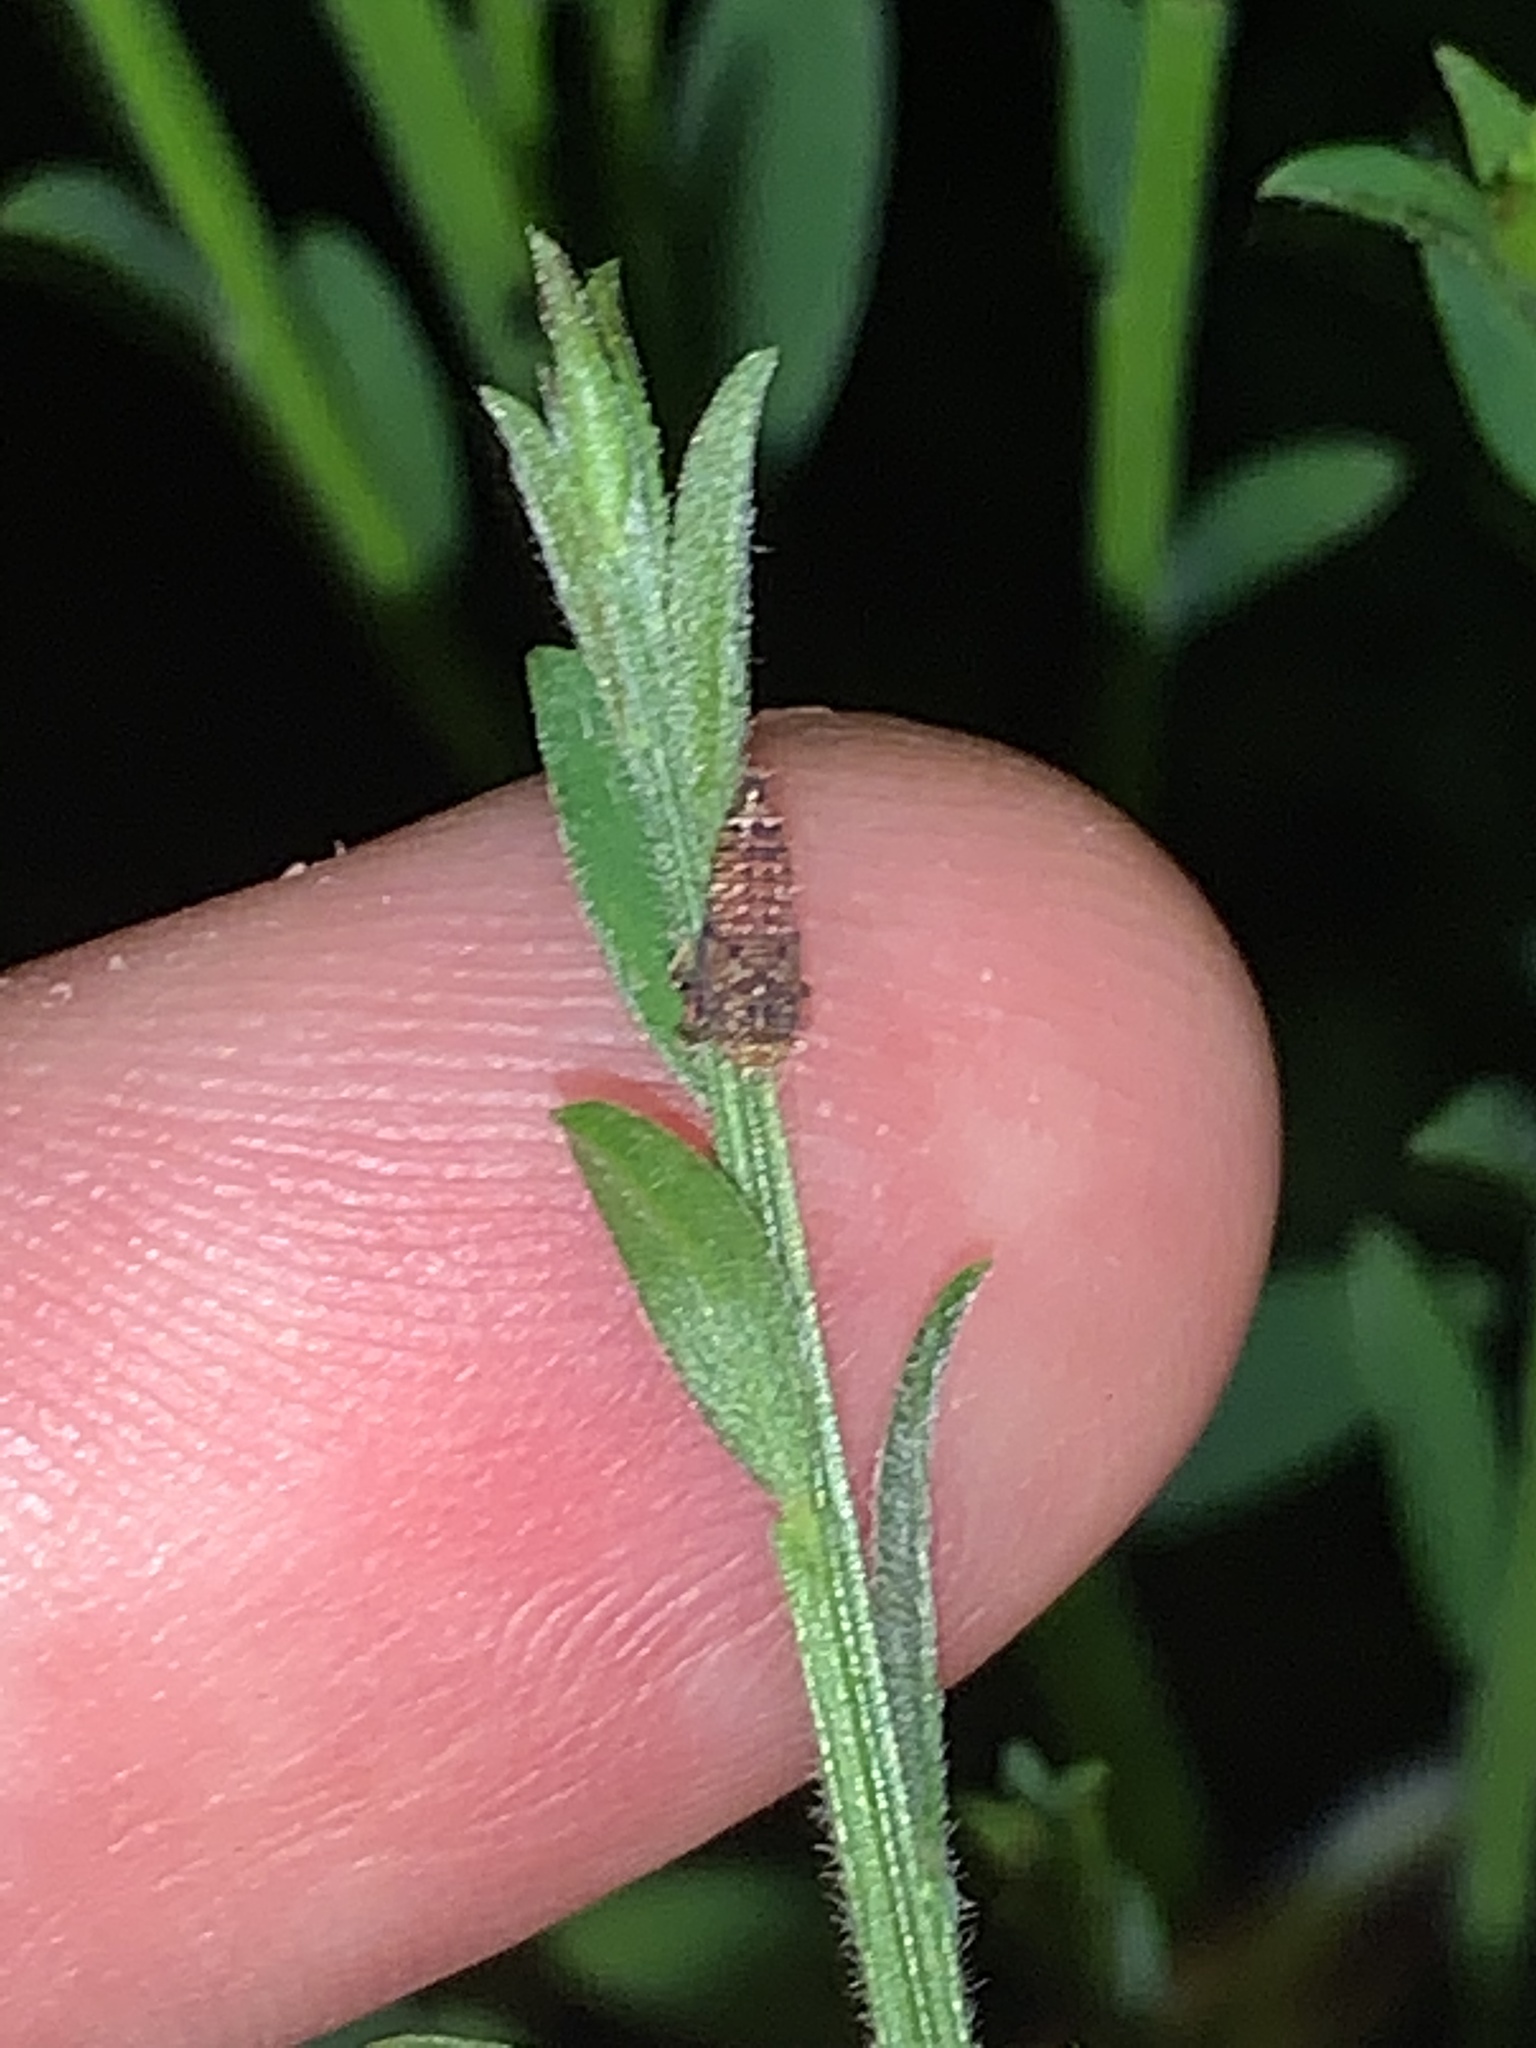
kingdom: Animalia
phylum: Arthropoda
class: Insecta
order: Hemiptera
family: Cicadellidae
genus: Orientus
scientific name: Orientus ishidae
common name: Japanese leafhopper
